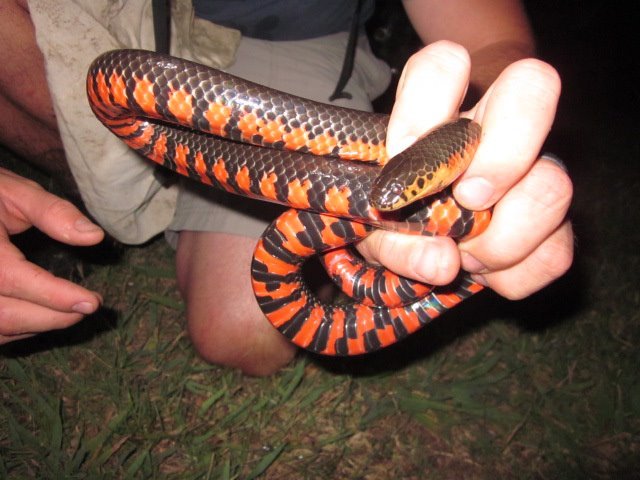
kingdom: Animalia
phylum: Chordata
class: Squamata
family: Colubridae
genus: Farancia
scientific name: Farancia abacura
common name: Mud snake
